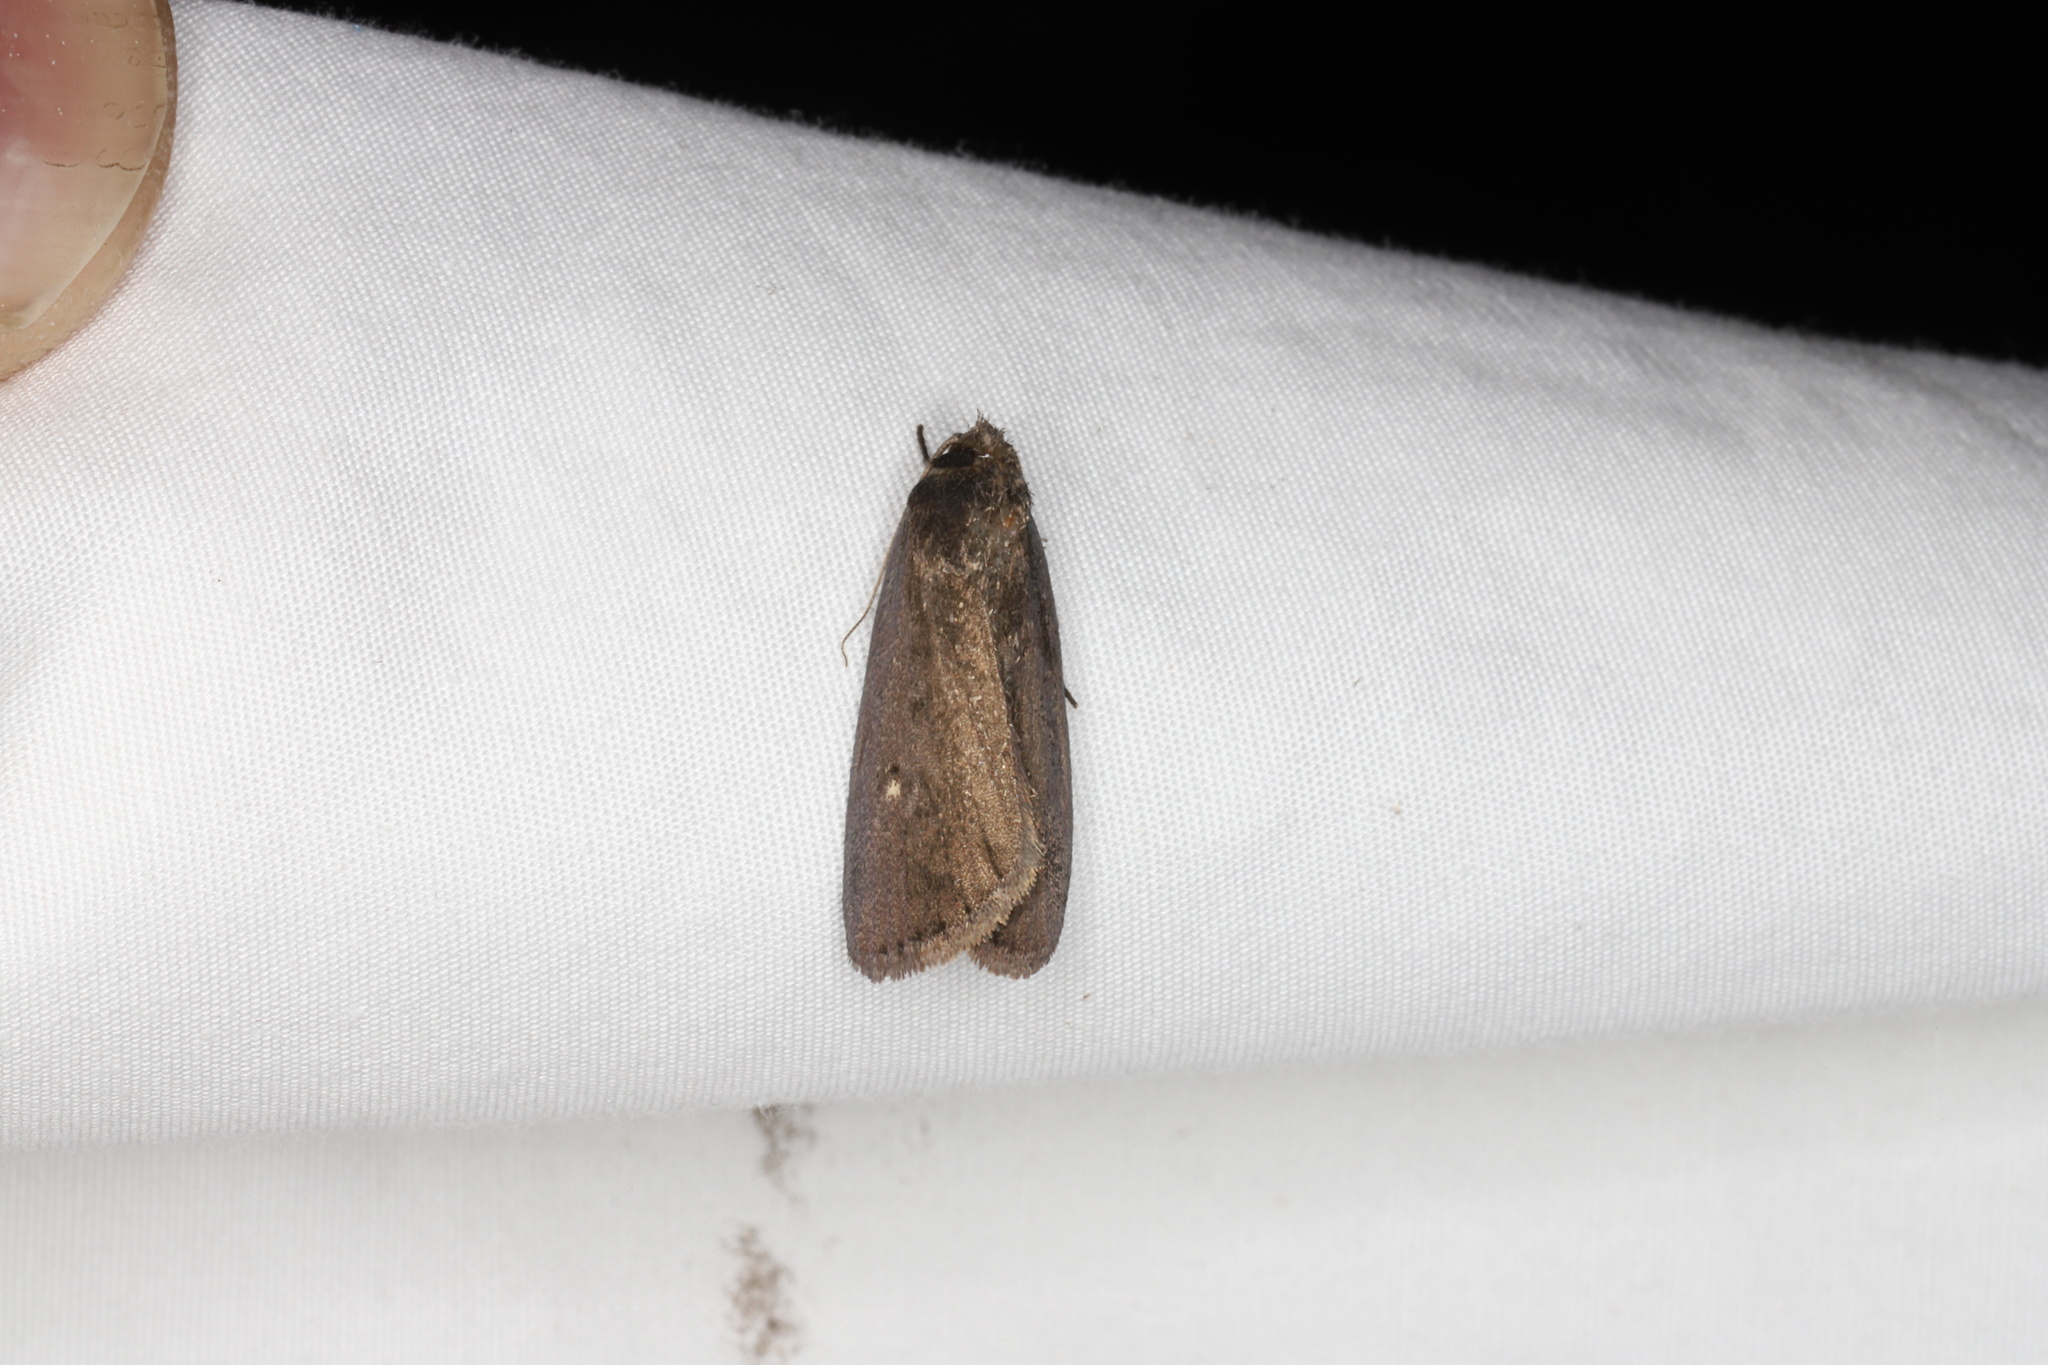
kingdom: Animalia
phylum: Arthropoda
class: Insecta
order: Lepidoptera
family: Noctuidae
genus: Proxenus
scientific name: Proxenus miranda
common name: Miranda moth
